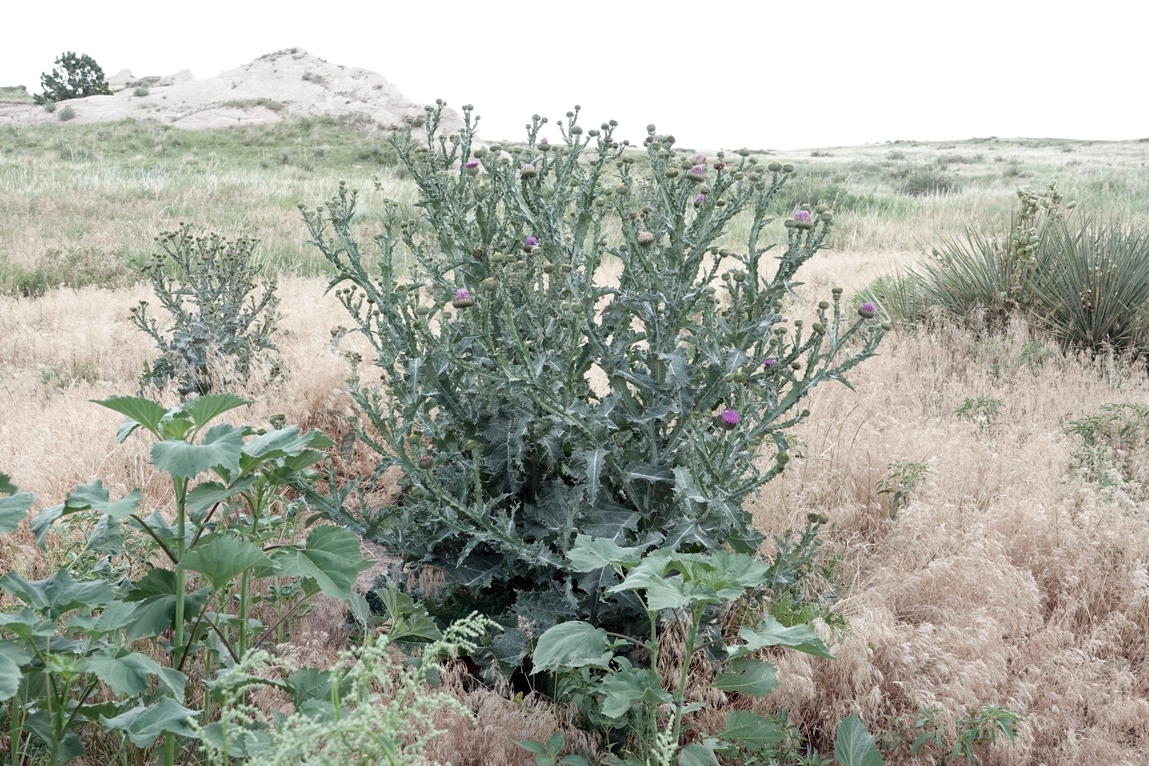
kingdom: Plantae
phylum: Tracheophyta
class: Magnoliopsida
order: Asterales
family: Asteraceae
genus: Onopordum
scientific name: Onopordum acanthium
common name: Scotch thistle
